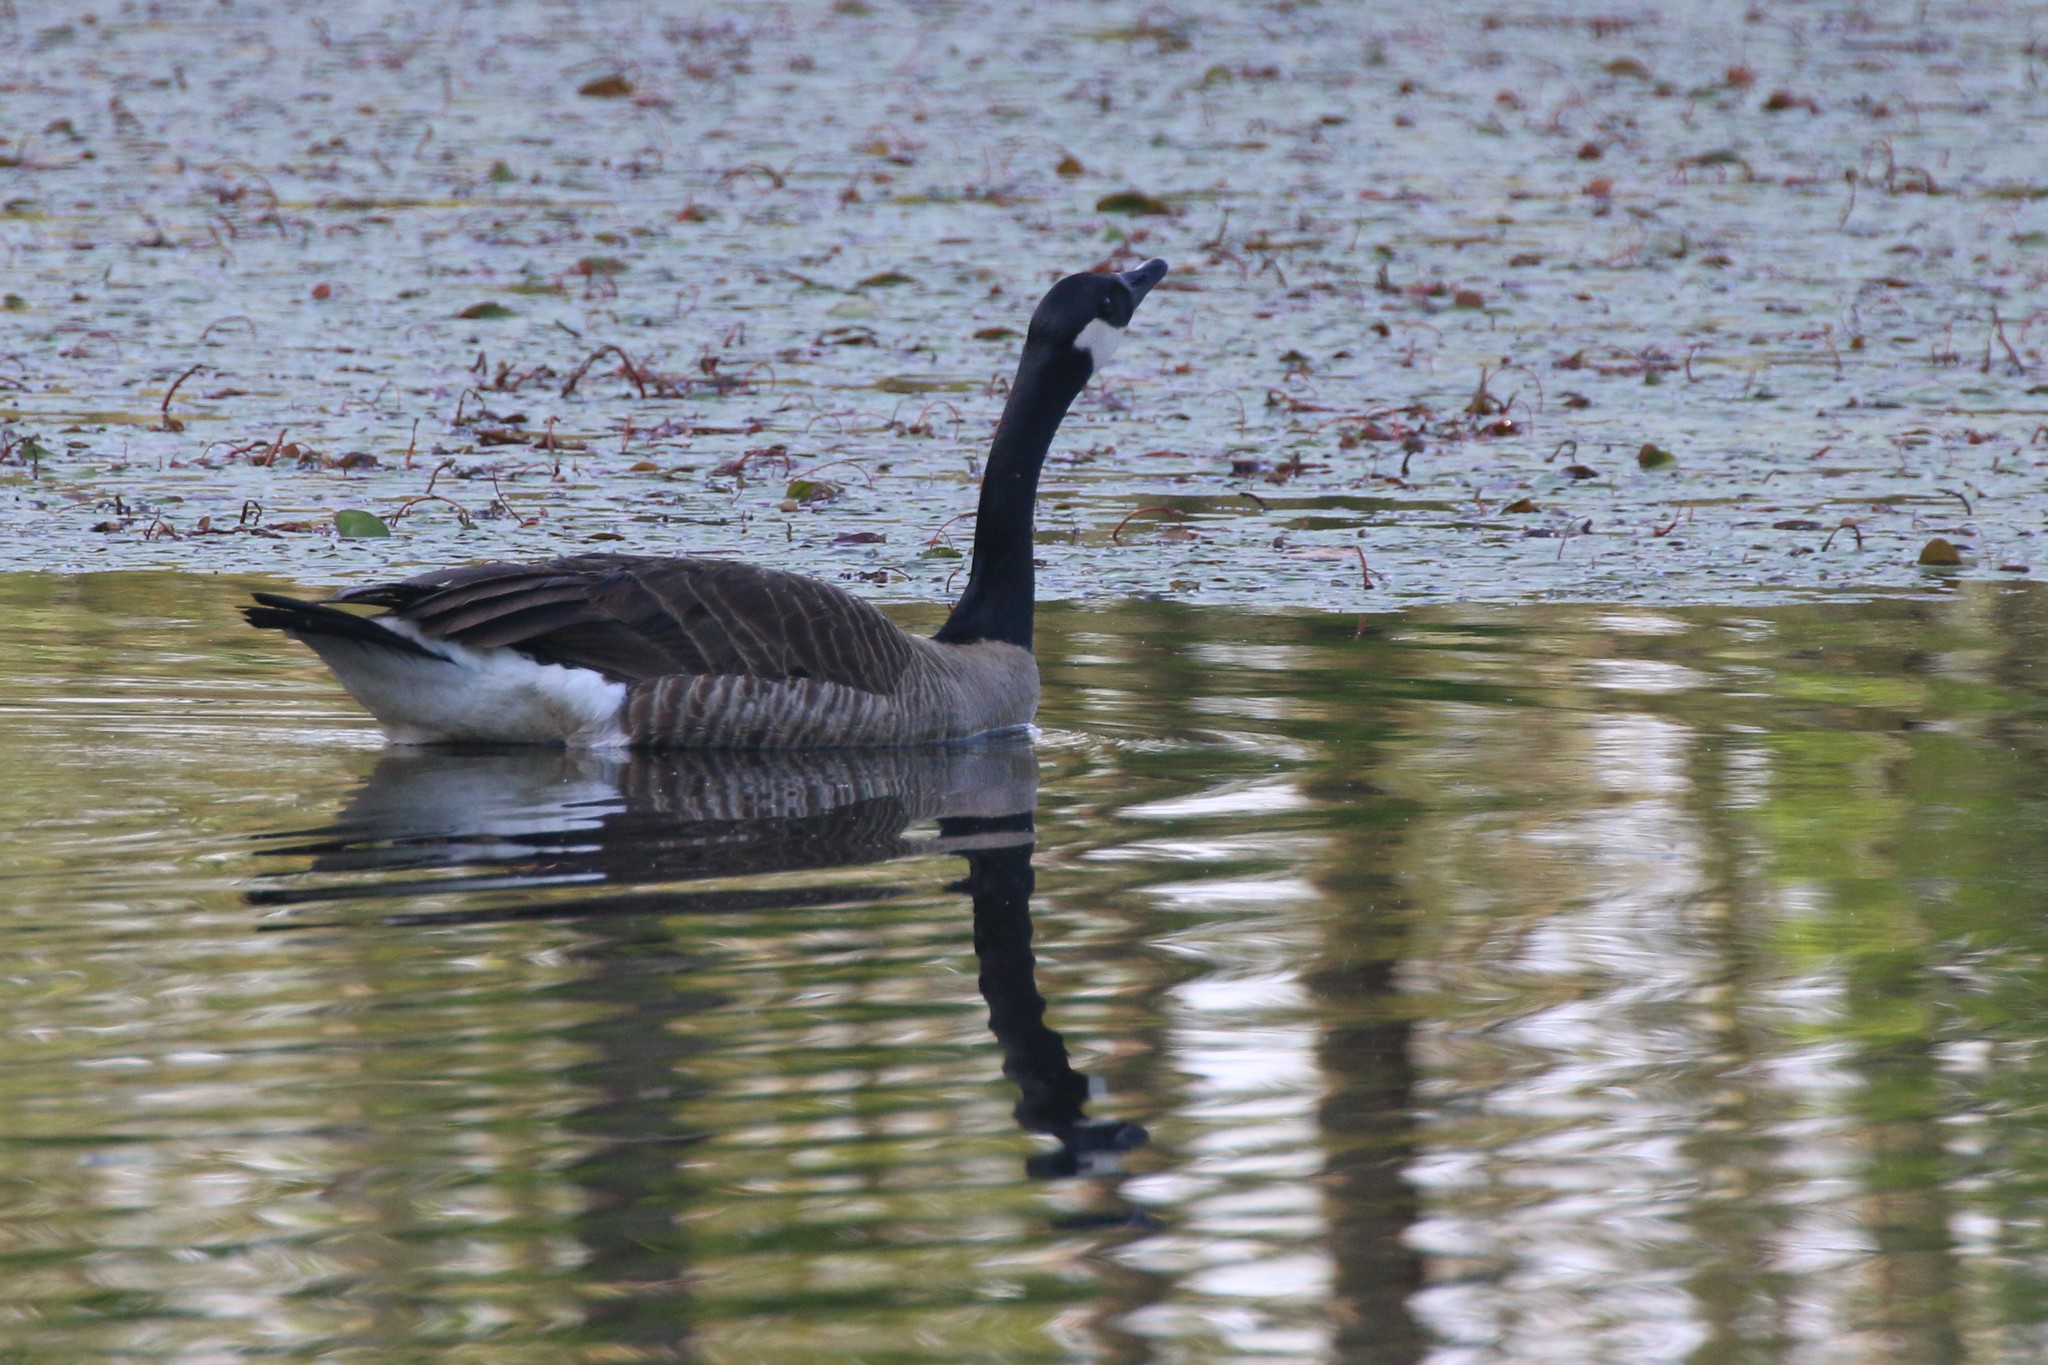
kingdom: Animalia
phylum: Chordata
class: Aves
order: Anseriformes
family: Anatidae
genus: Branta
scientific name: Branta canadensis
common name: Canada goose
